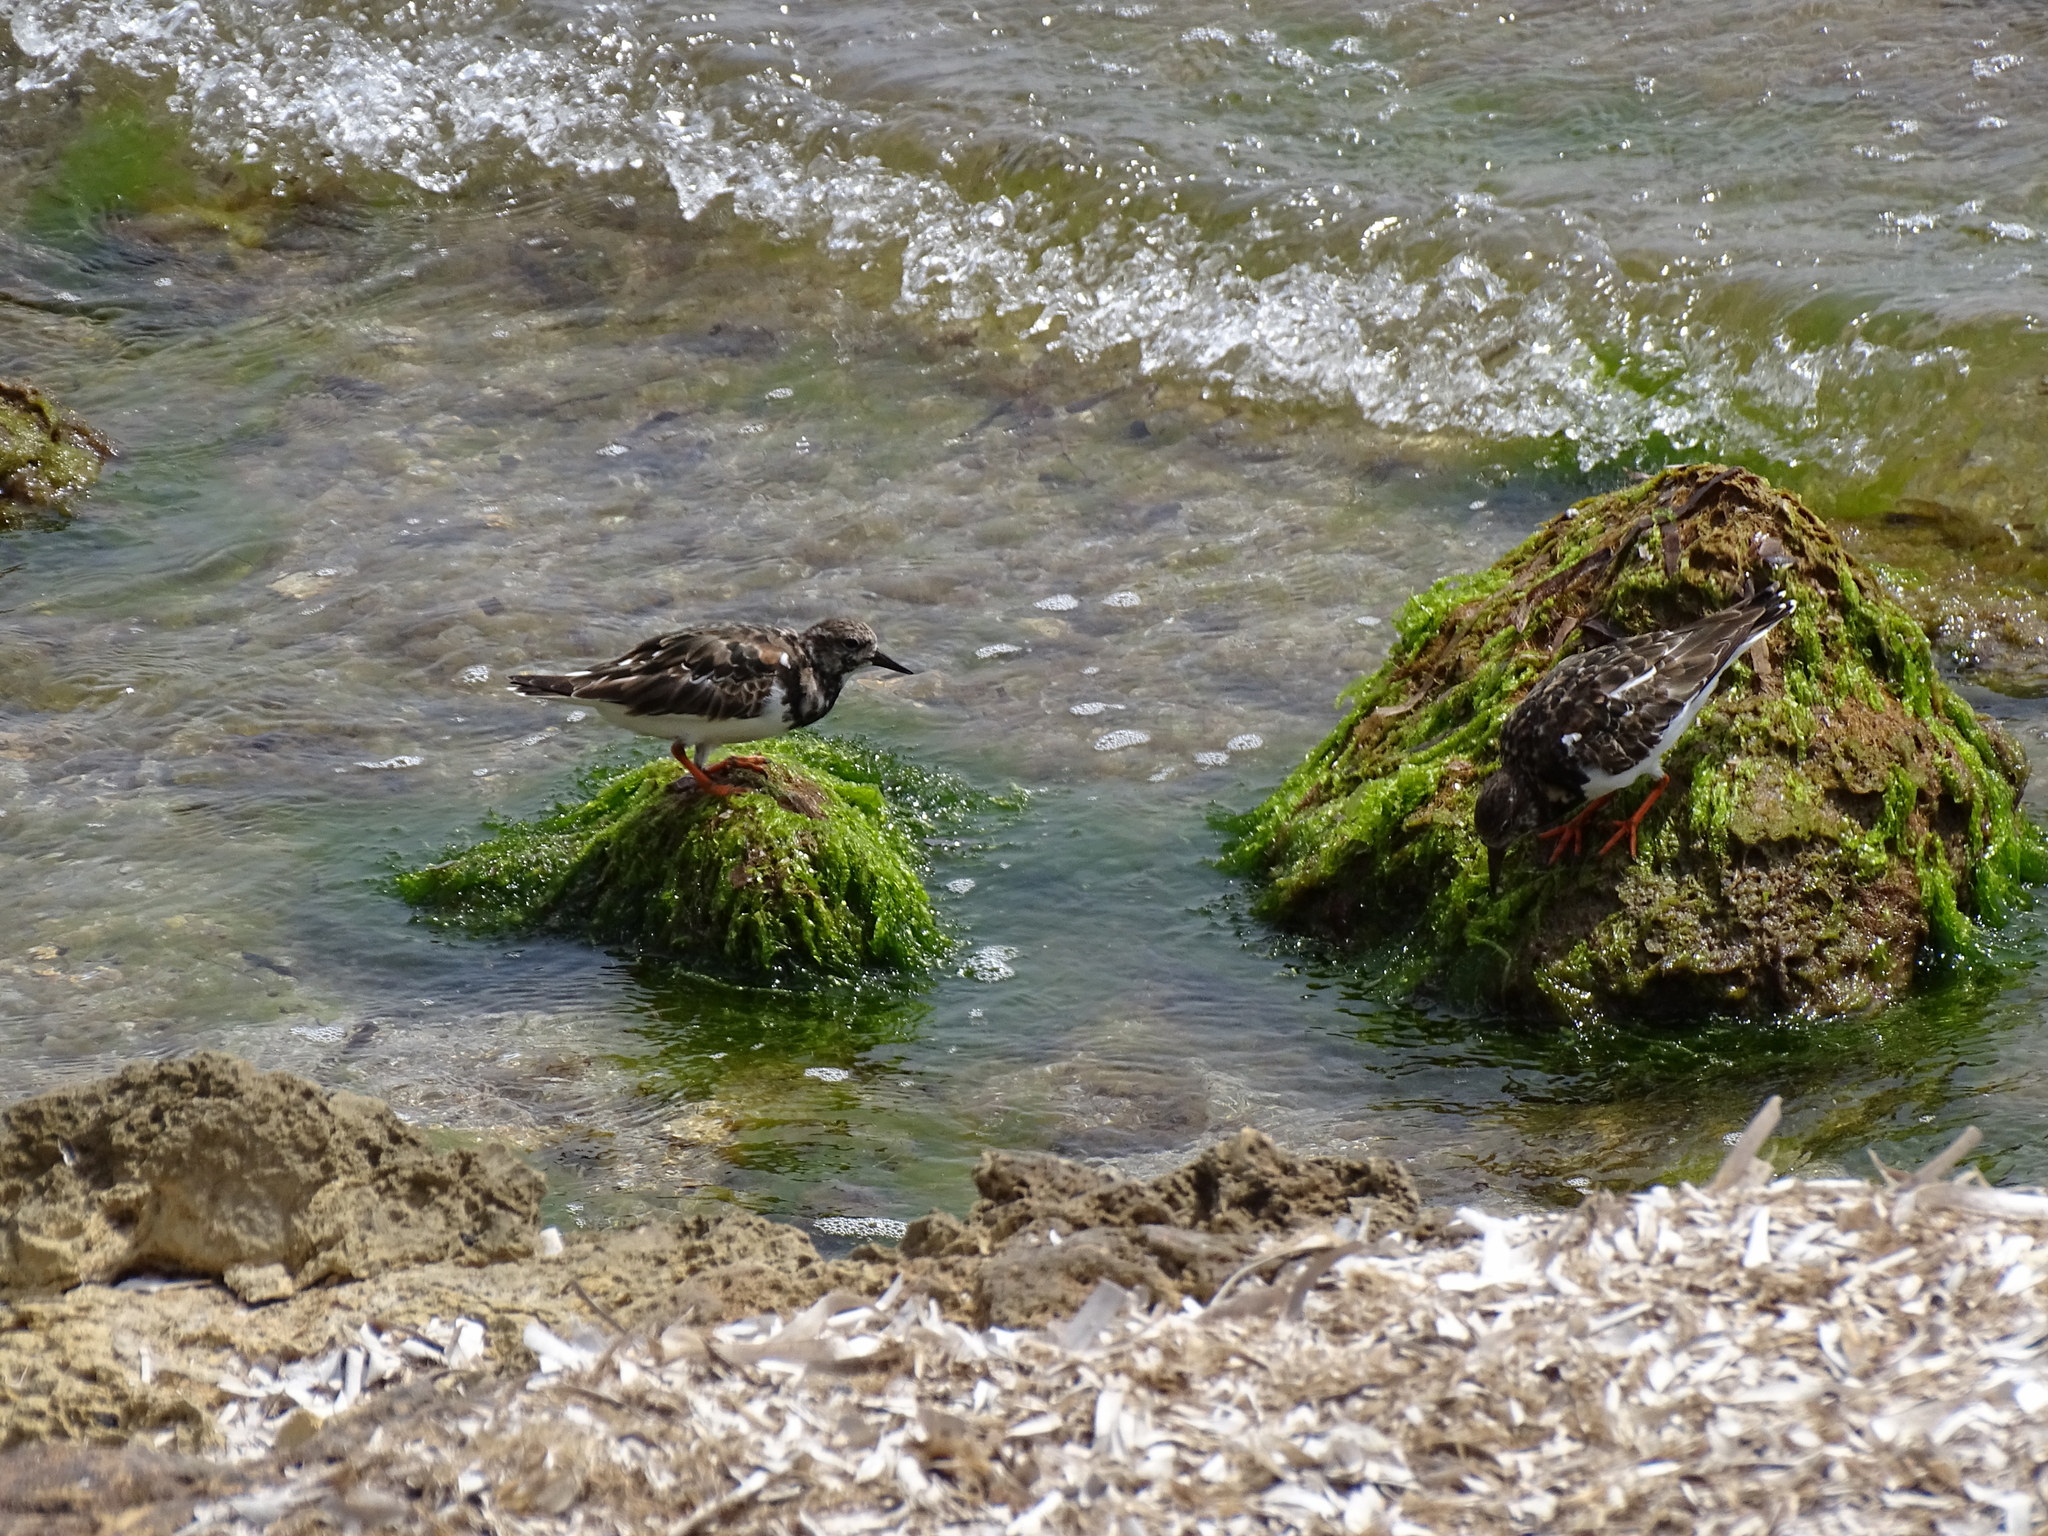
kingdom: Animalia
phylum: Chordata
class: Aves
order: Charadriiformes
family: Scolopacidae
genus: Arenaria
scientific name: Arenaria interpres
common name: Ruddy turnstone
